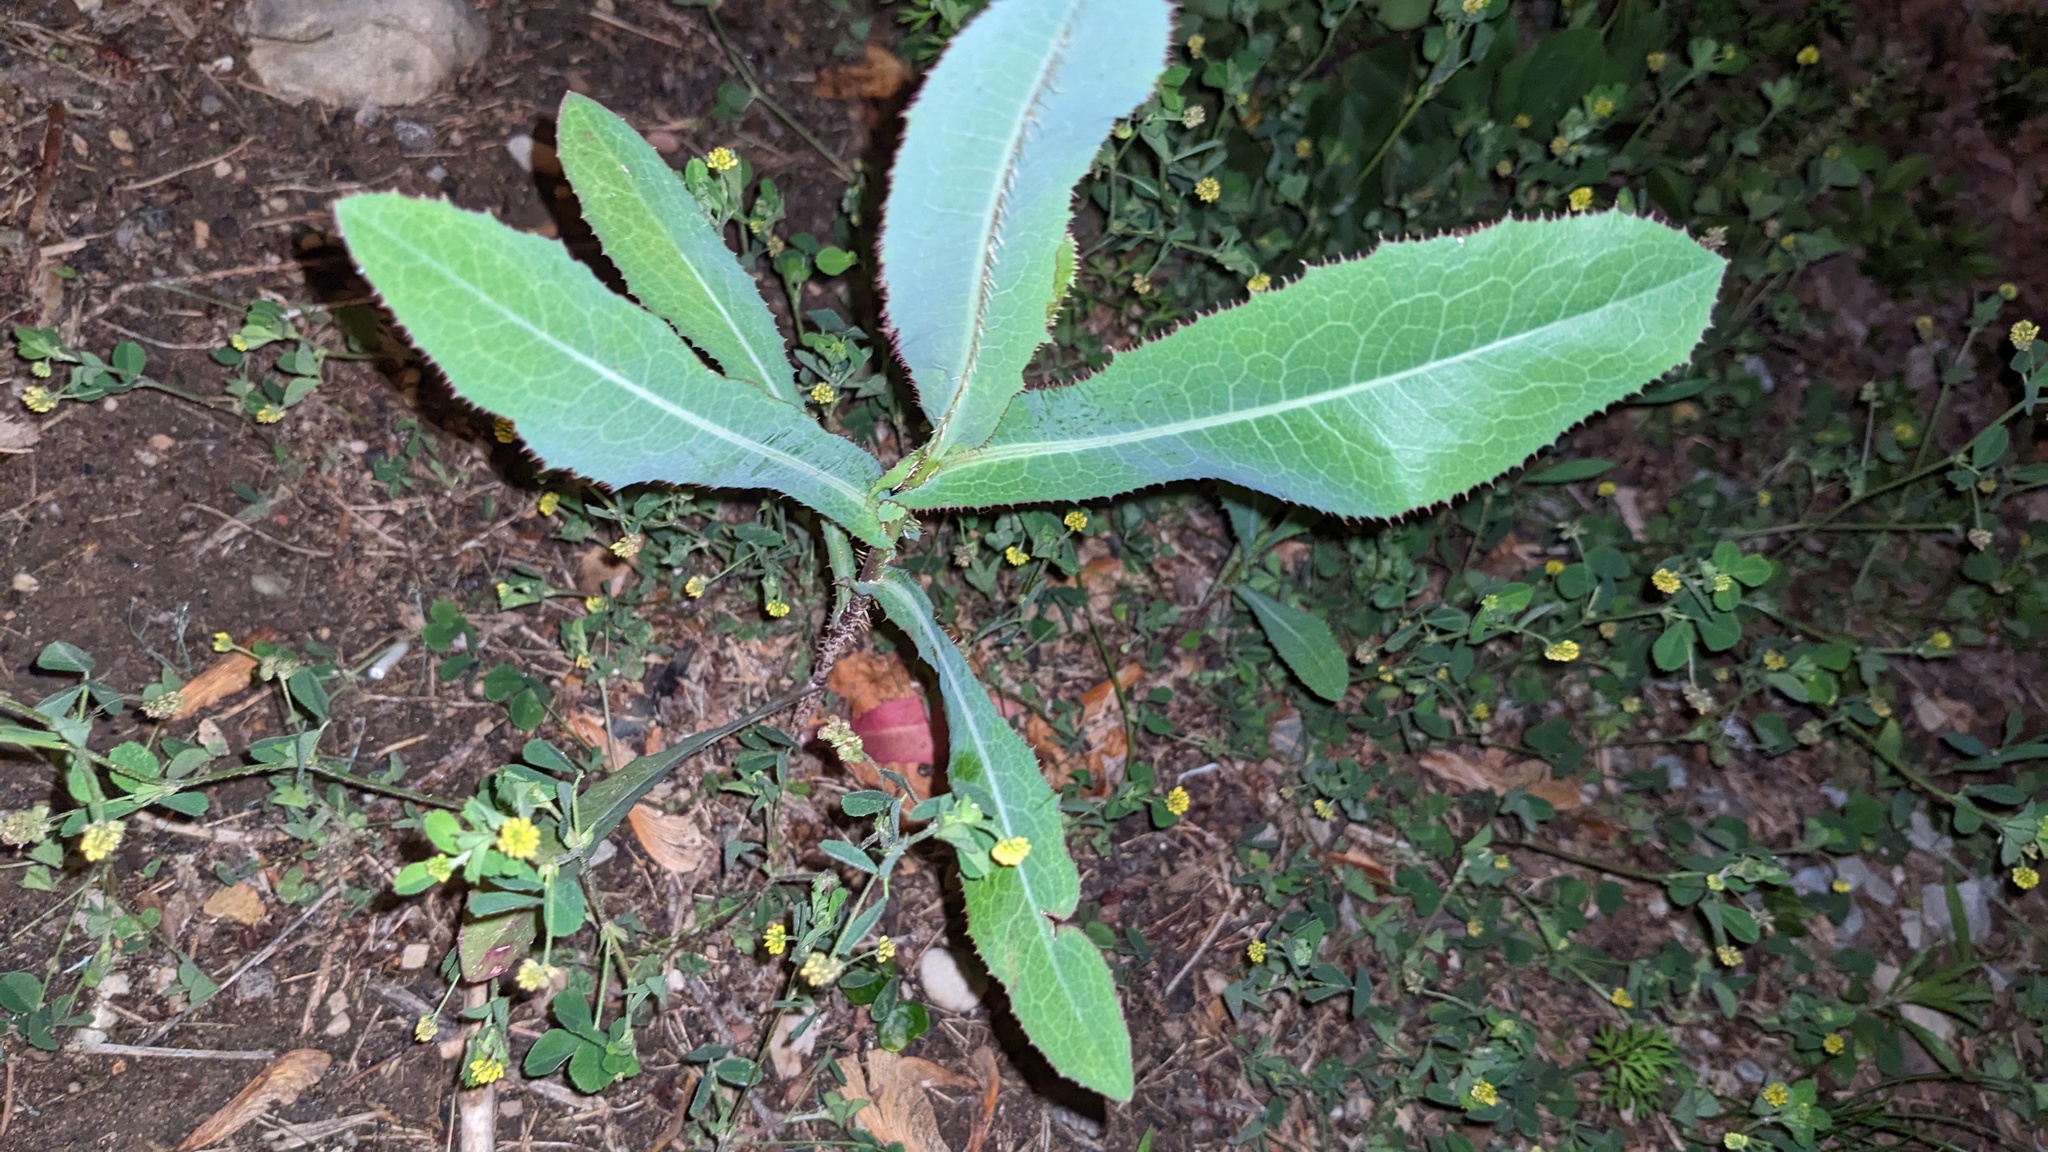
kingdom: Plantae
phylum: Tracheophyta
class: Magnoliopsida
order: Asterales
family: Asteraceae
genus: Lactuca
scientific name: Lactuca serriola
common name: Prickly lettuce
